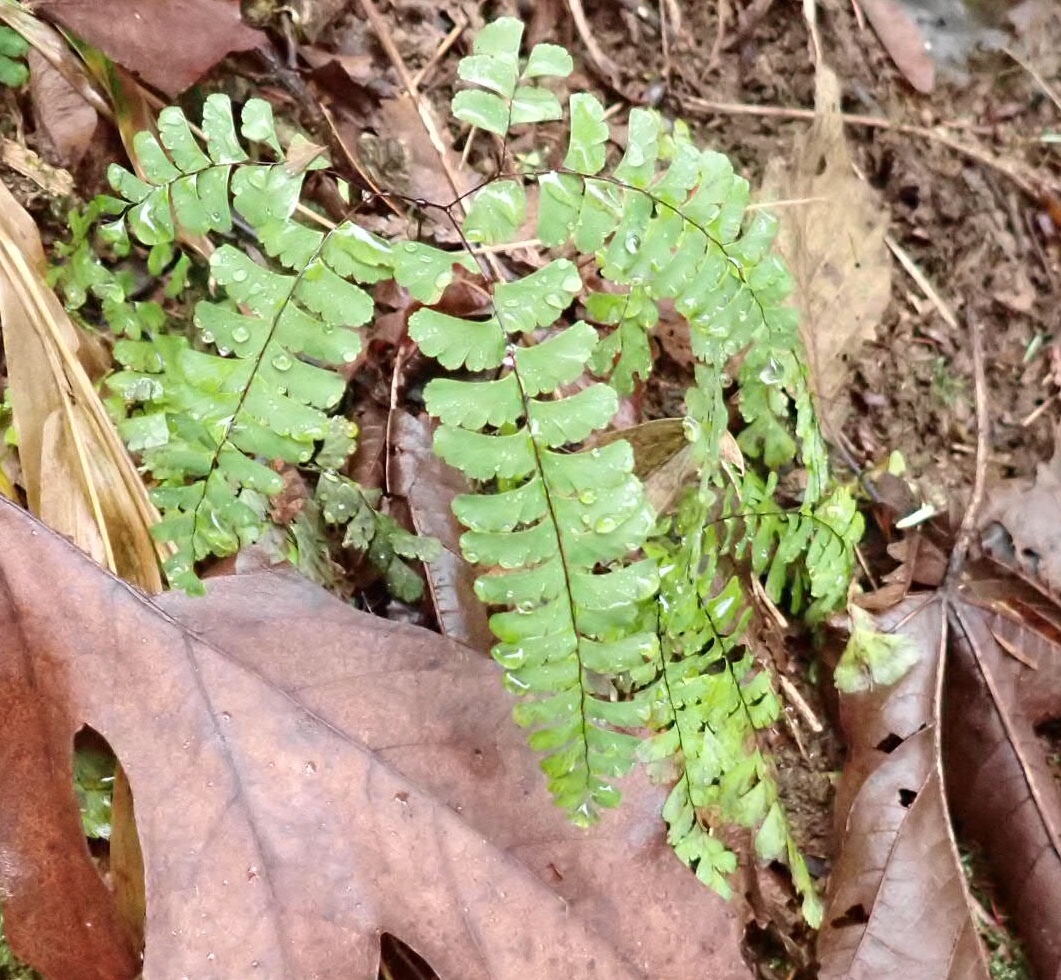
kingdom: Plantae
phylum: Tracheophyta
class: Polypodiopsida
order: Polypodiales
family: Pteridaceae
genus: Adiantum
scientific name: Adiantum aleuticum
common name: Aleutian maidenhair fern
